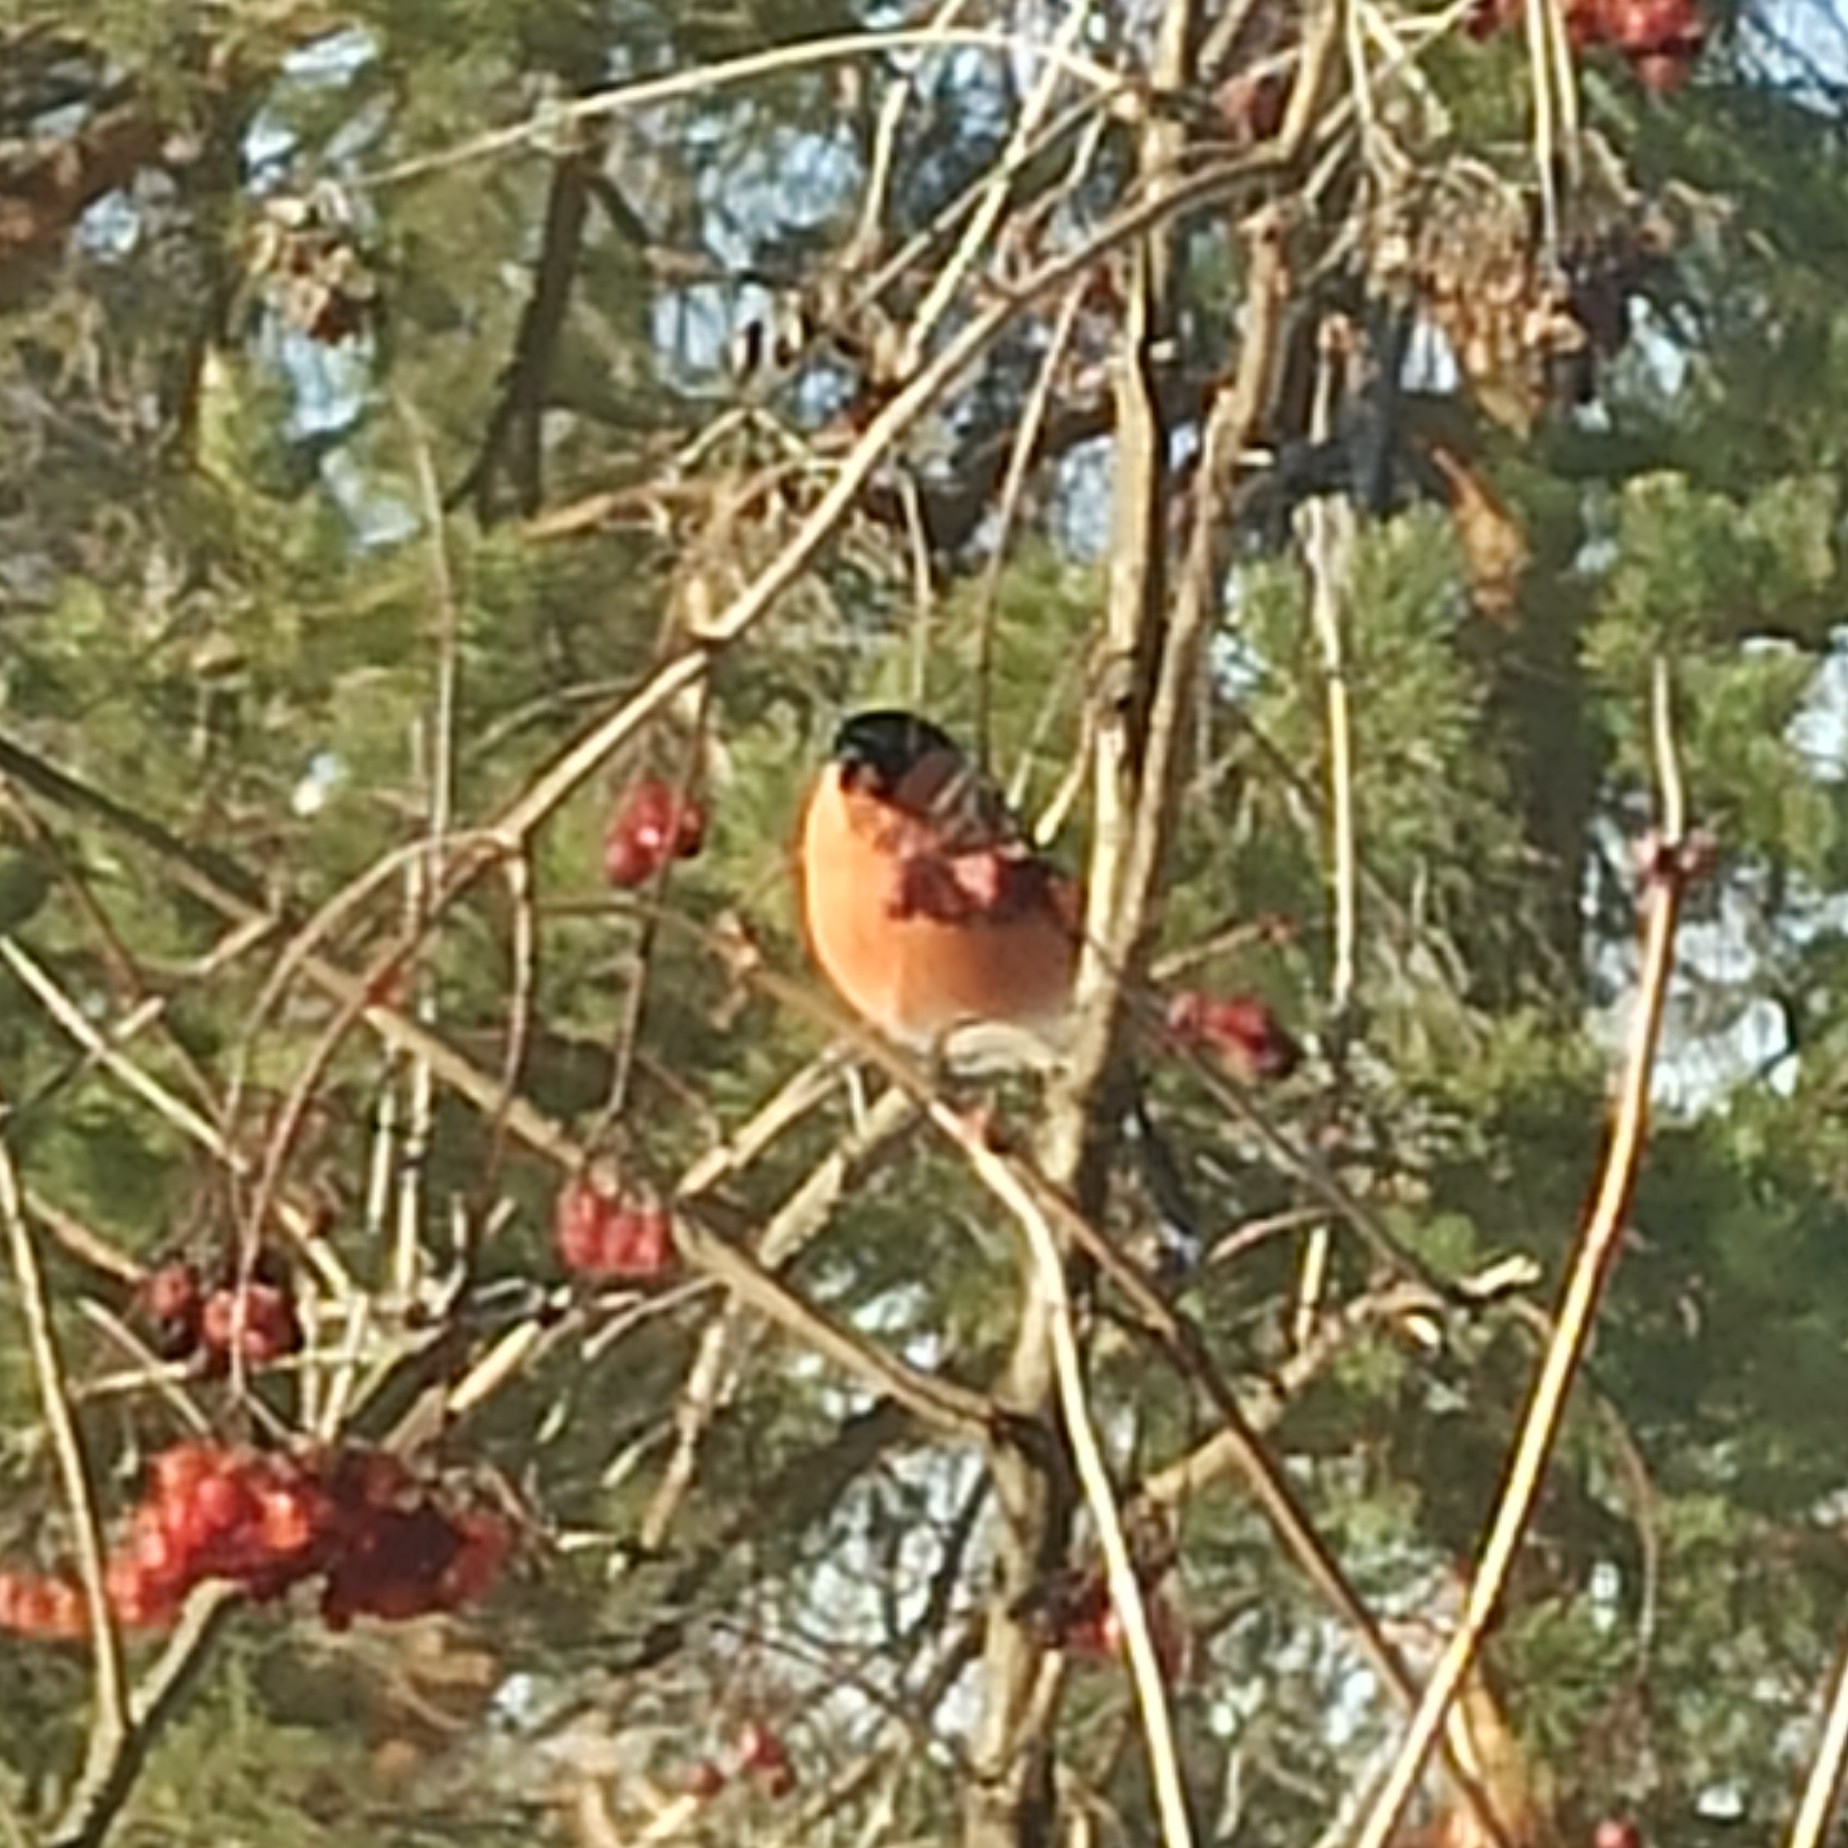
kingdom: Animalia
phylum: Chordata
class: Aves
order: Passeriformes
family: Fringillidae
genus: Pyrrhula
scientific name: Pyrrhula pyrrhula
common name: Eurasian bullfinch
